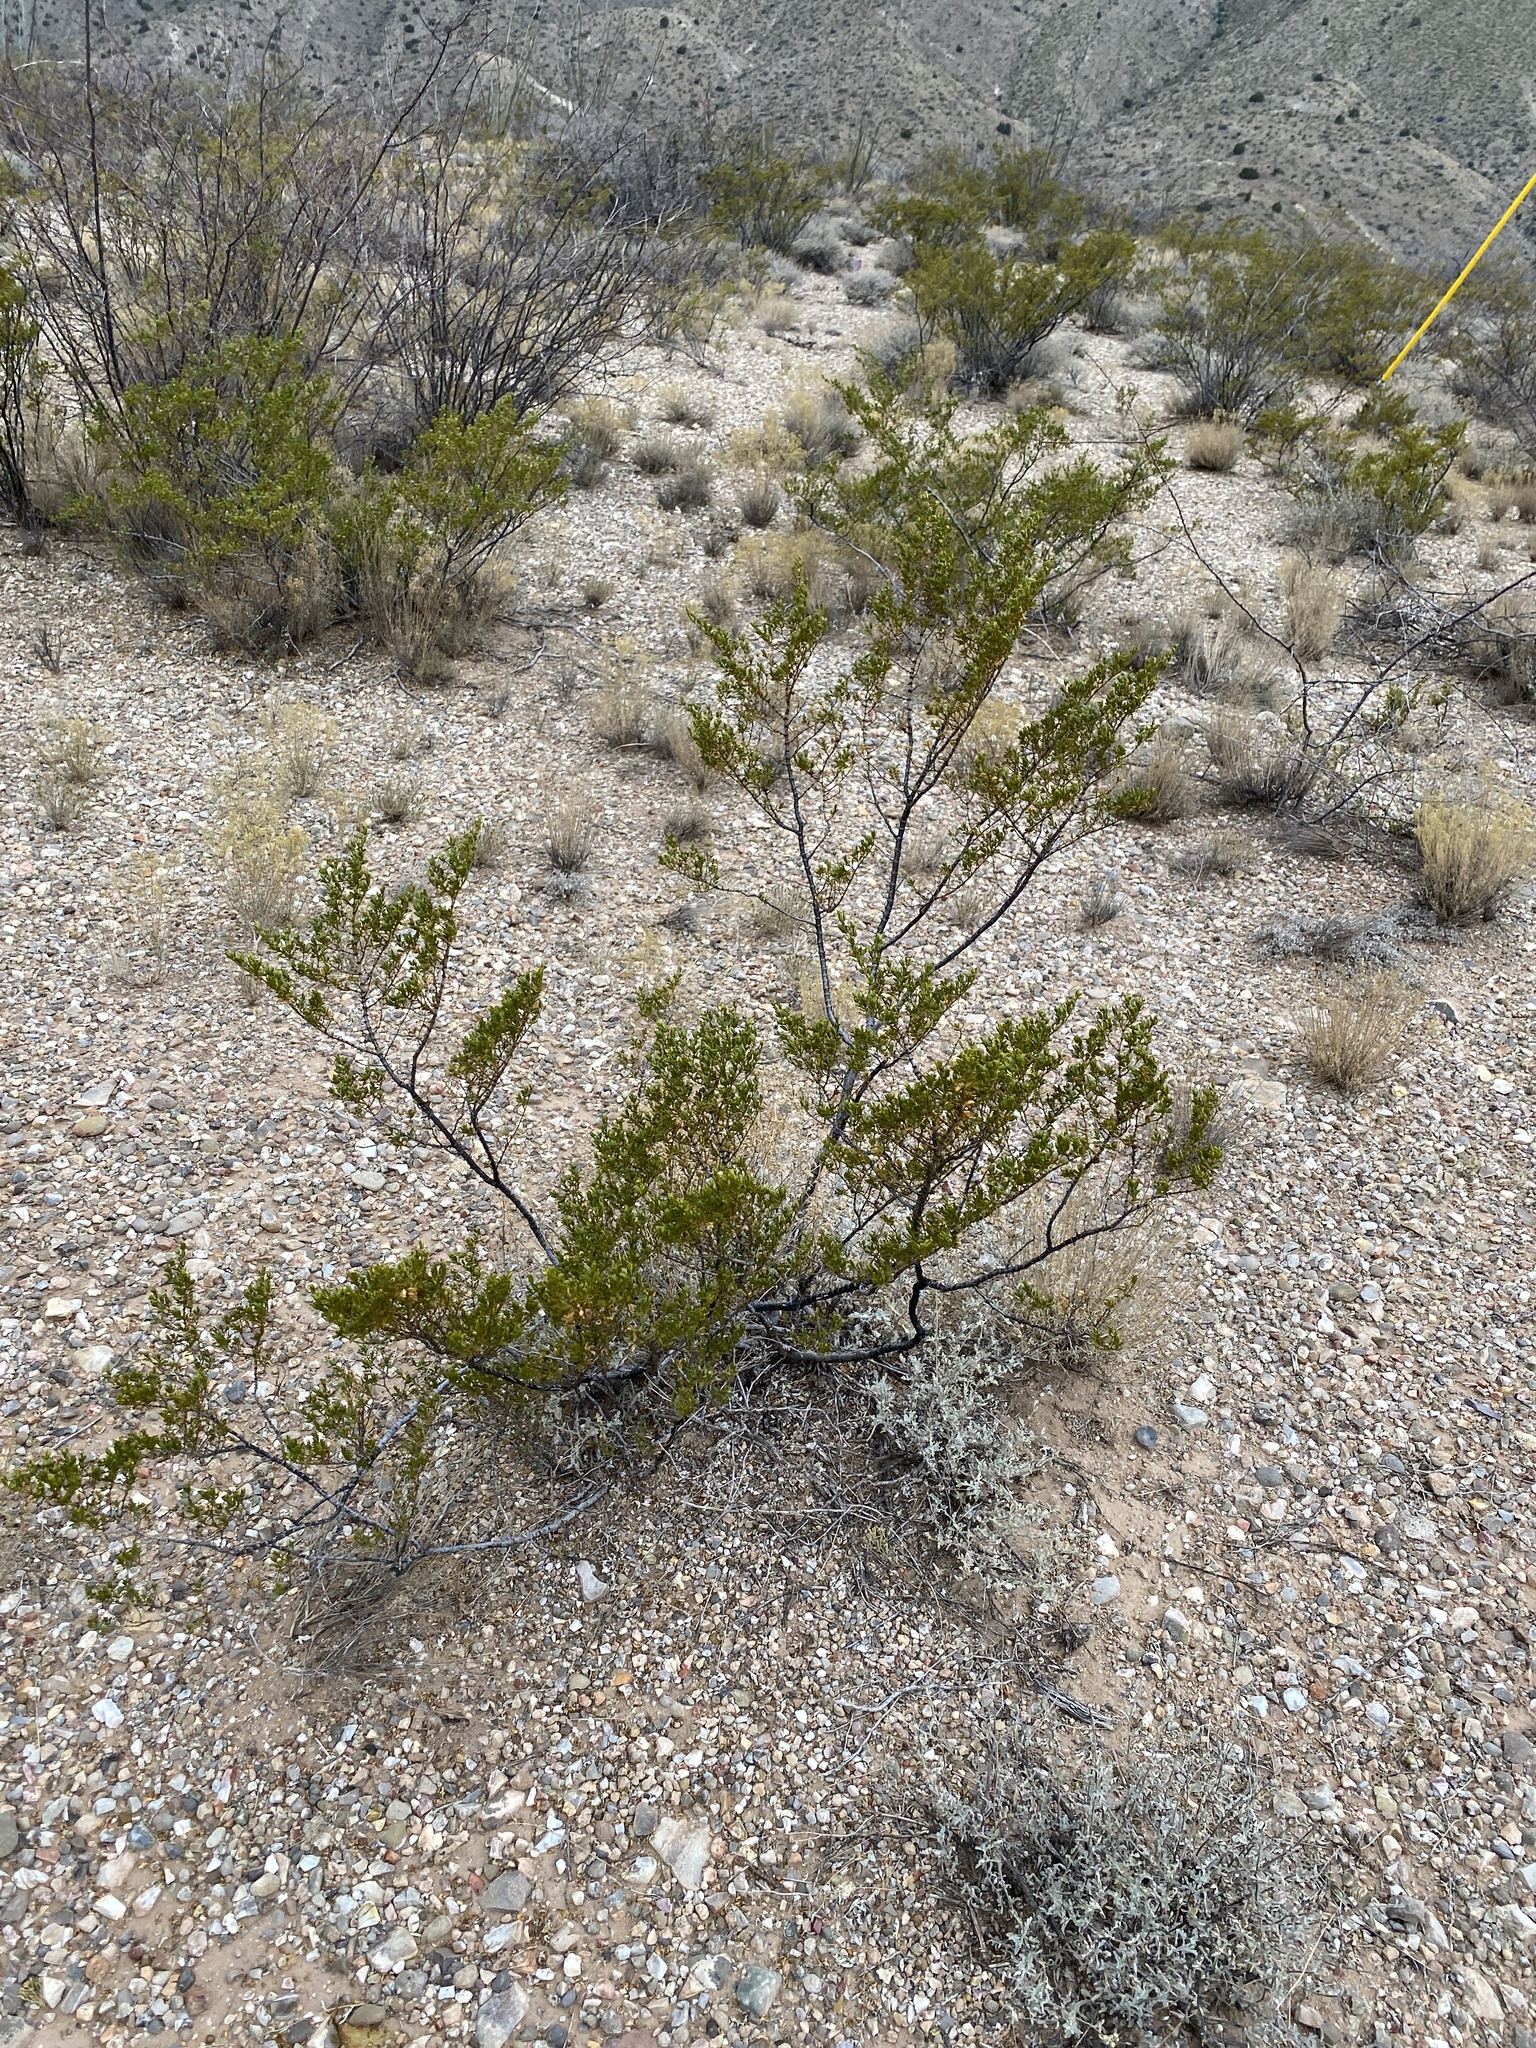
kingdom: Plantae
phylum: Tracheophyta
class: Magnoliopsida
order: Zygophyllales
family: Zygophyllaceae
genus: Larrea
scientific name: Larrea tridentata
